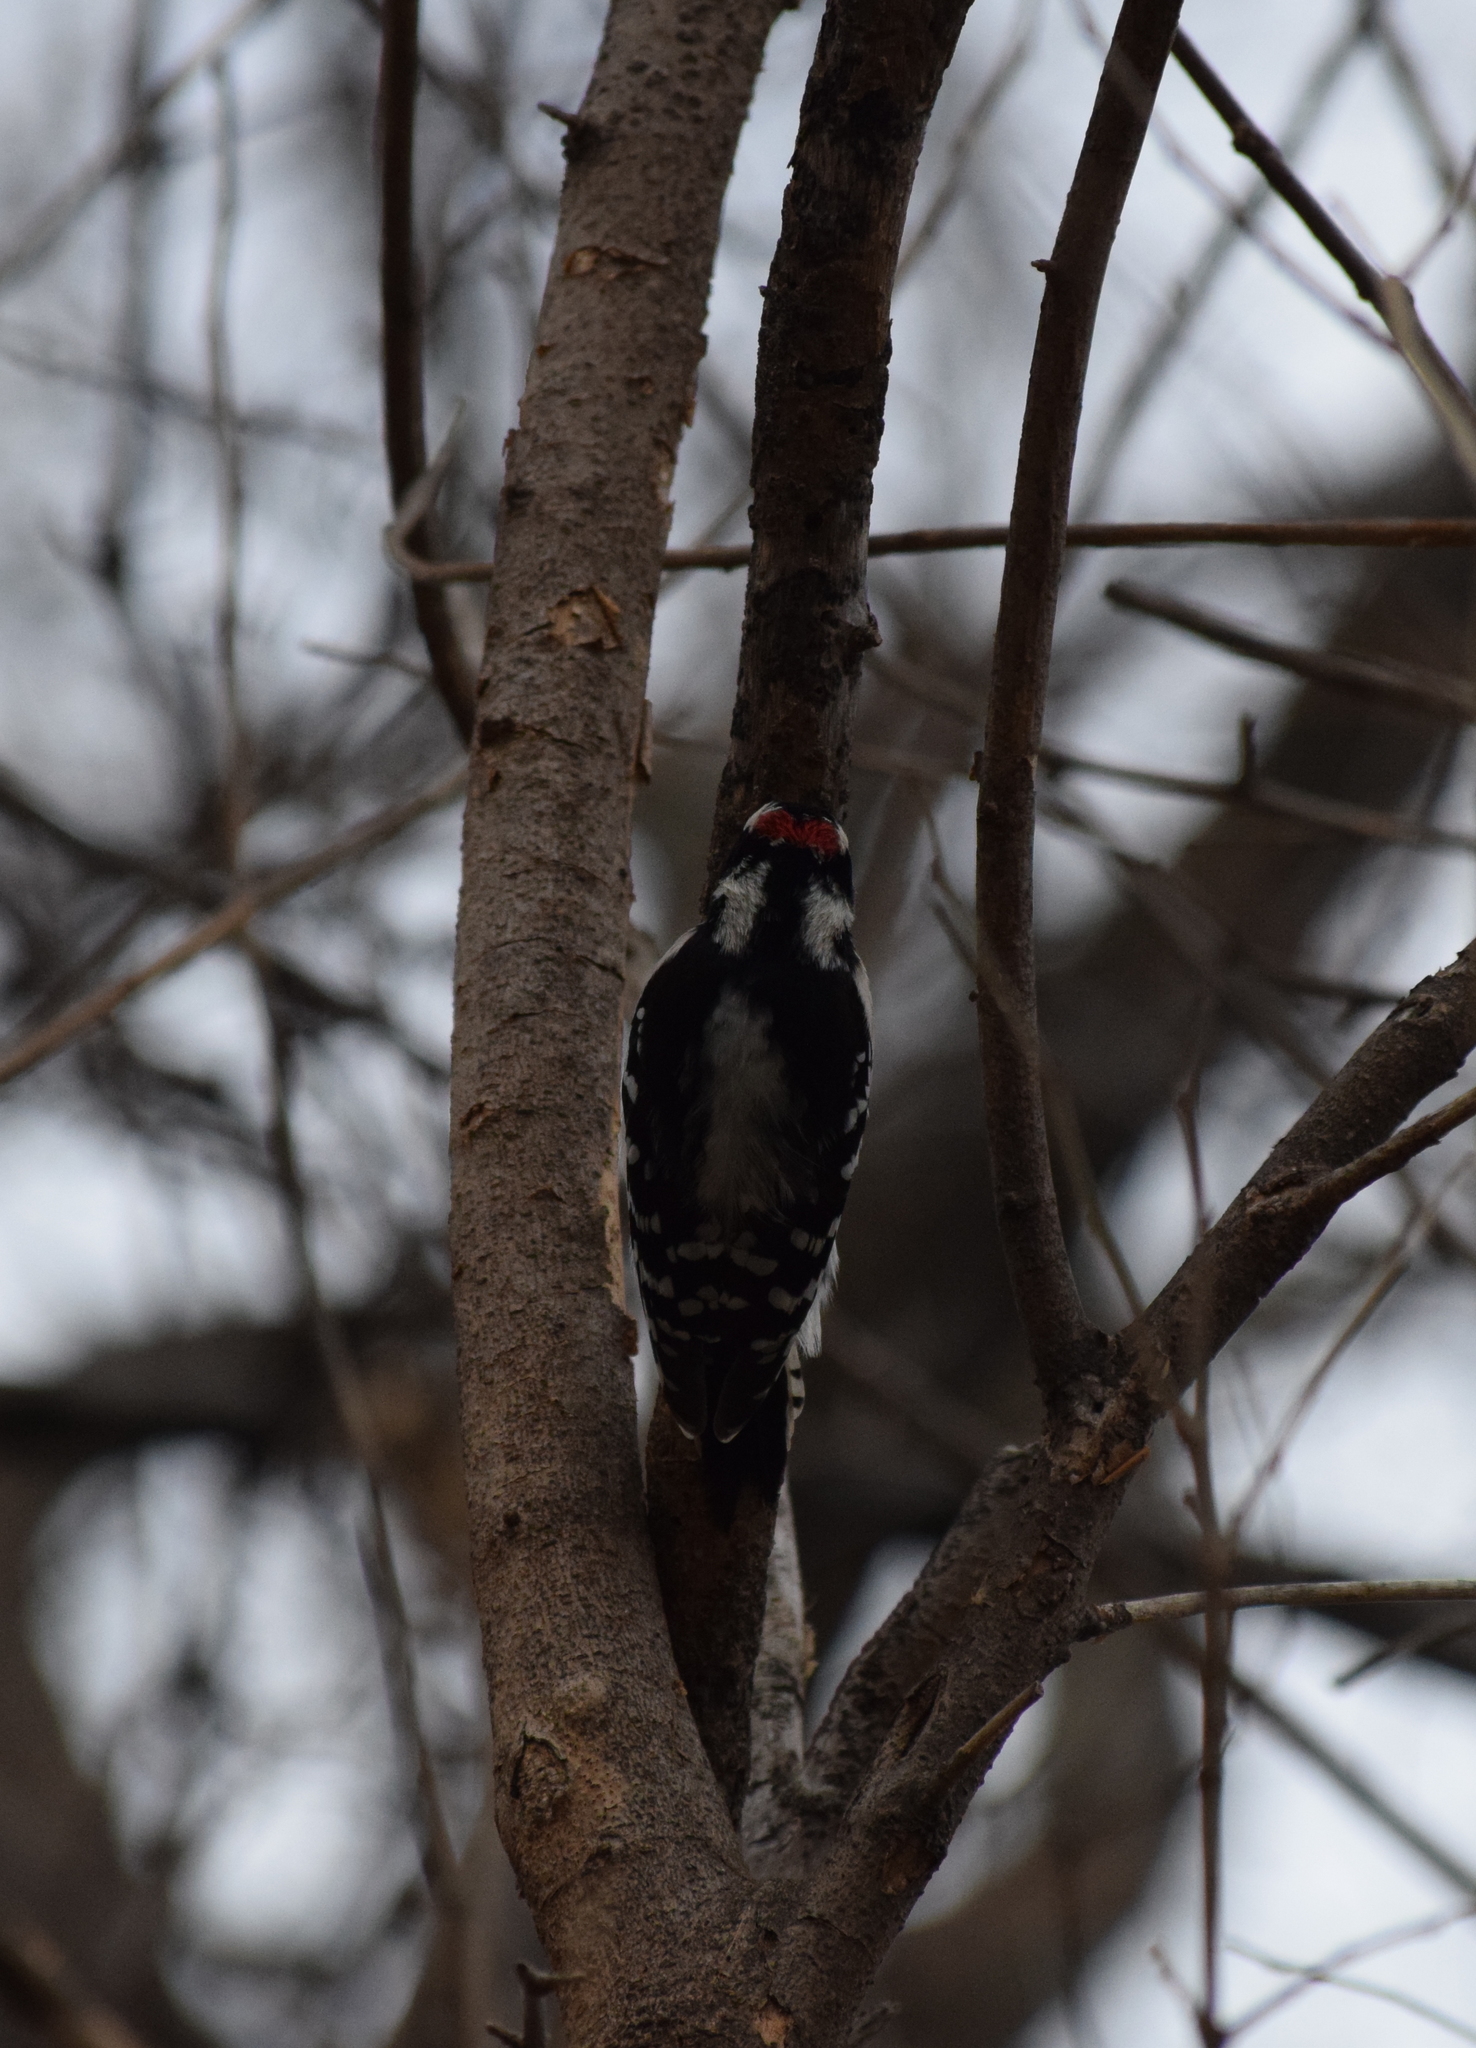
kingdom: Animalia
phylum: Chordata
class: Aves
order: Piciformes
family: Picidae
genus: Dryobates
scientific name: Dryobates pubescens
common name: Downy woodpecker
